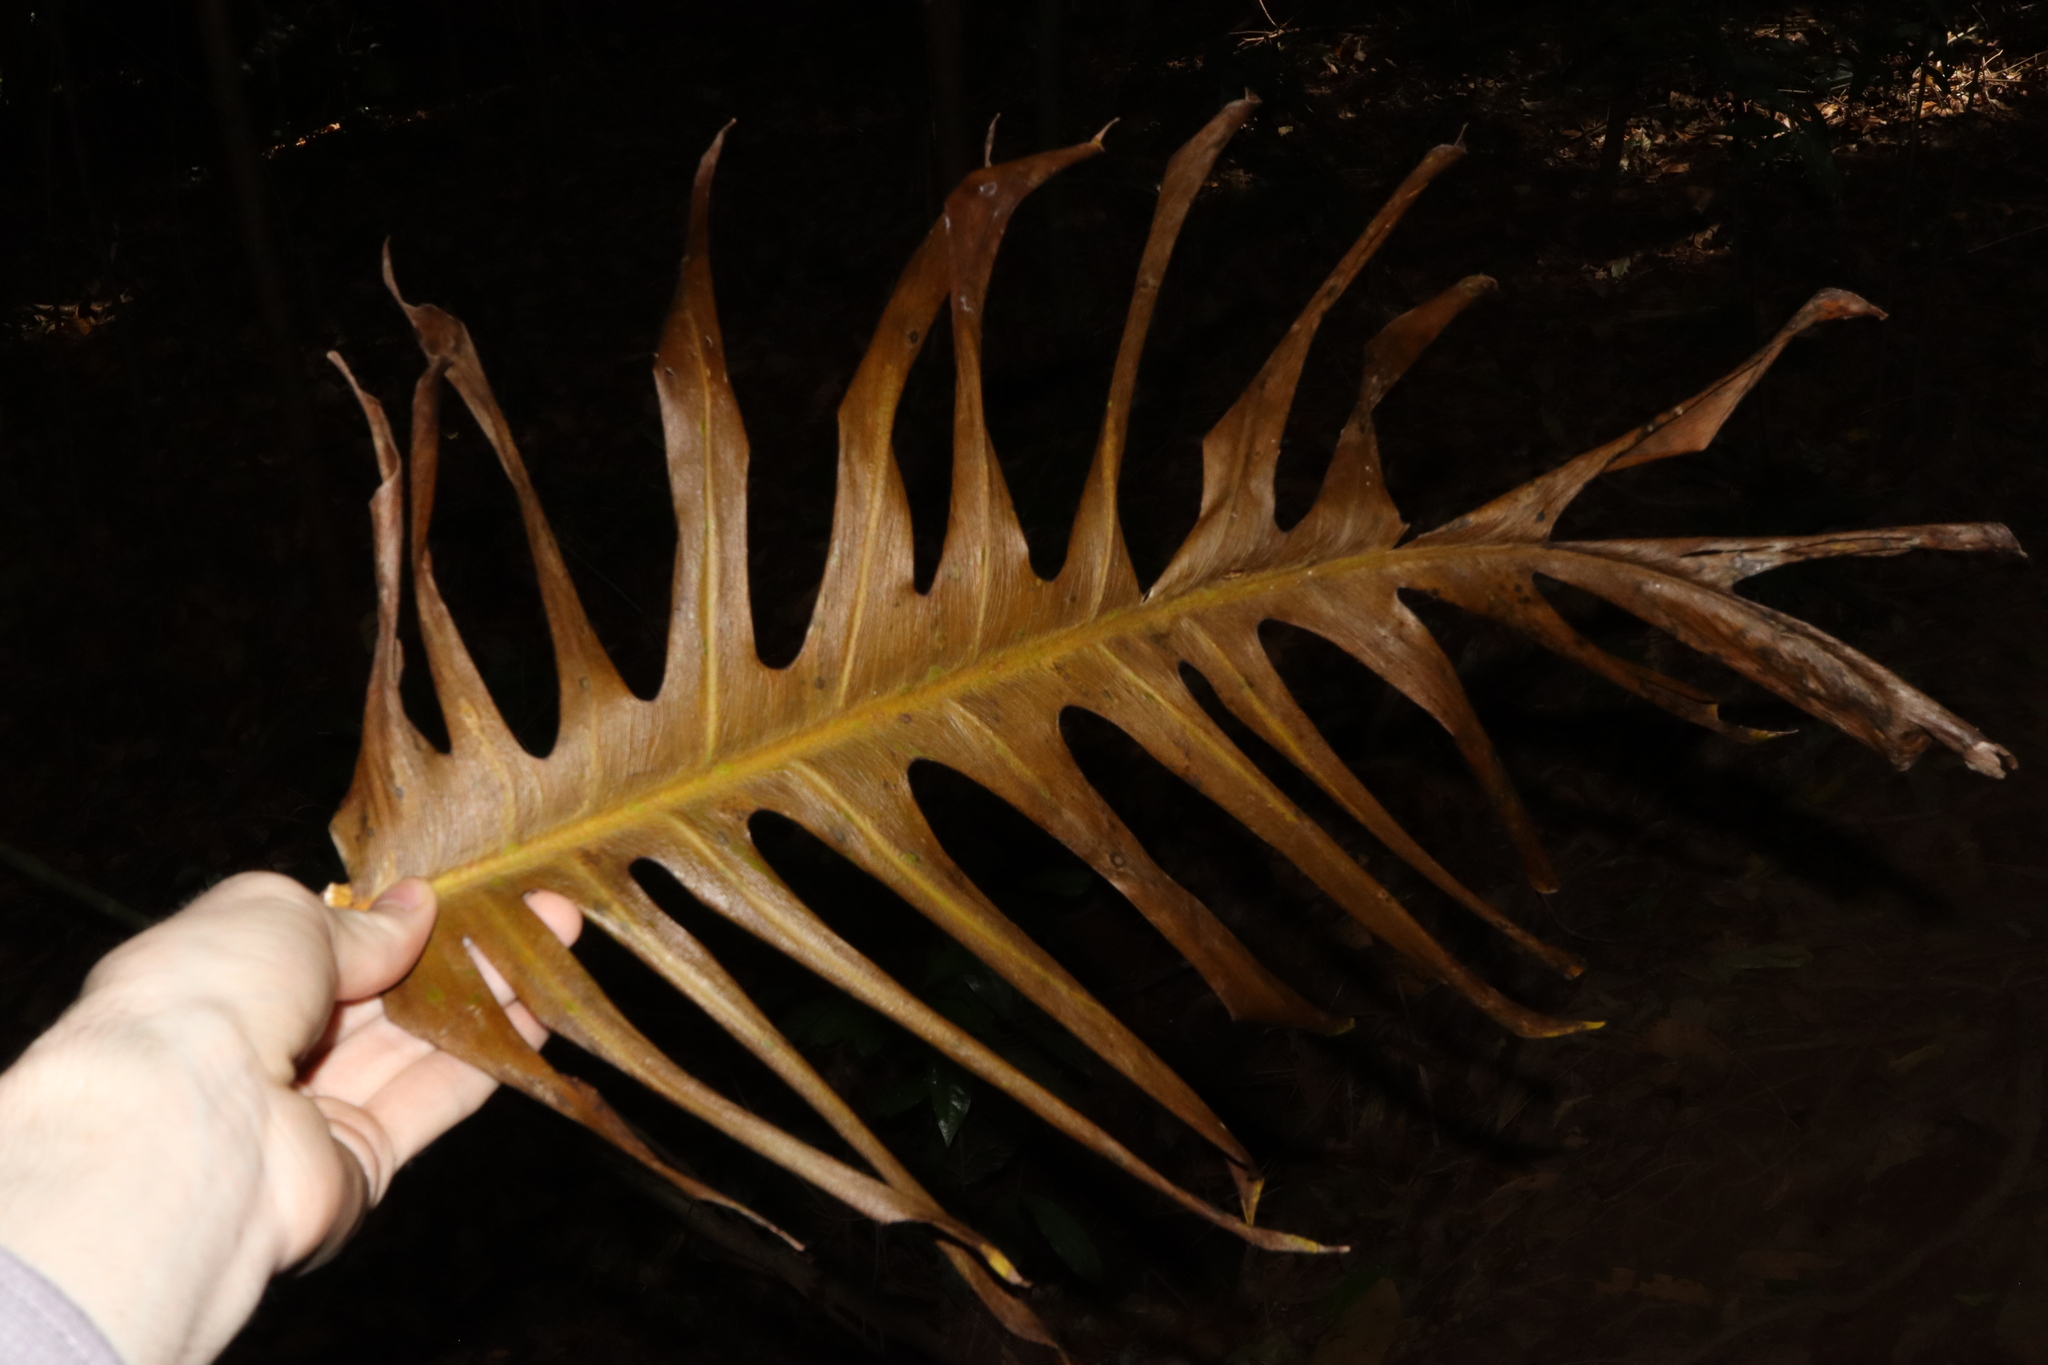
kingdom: Plantae
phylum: Tracheophyta
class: Liliopsida
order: Alismatales
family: Araceae
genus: Epipremnum
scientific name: Epipremnum pinnatum
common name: Centipede tongavine
